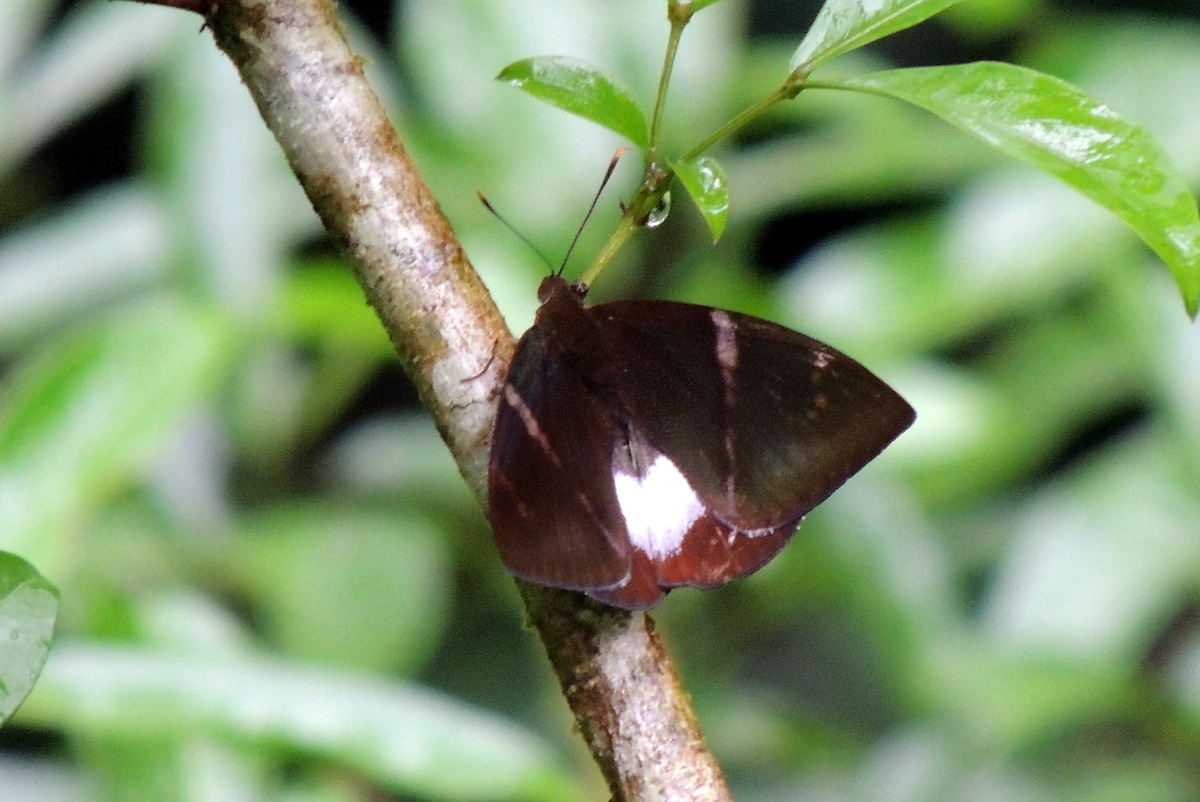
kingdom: Animalia
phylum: Arthropoda
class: Insecta
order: Lepidoptera
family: Castniidae
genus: Castniomera
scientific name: Castniomera atymnius
